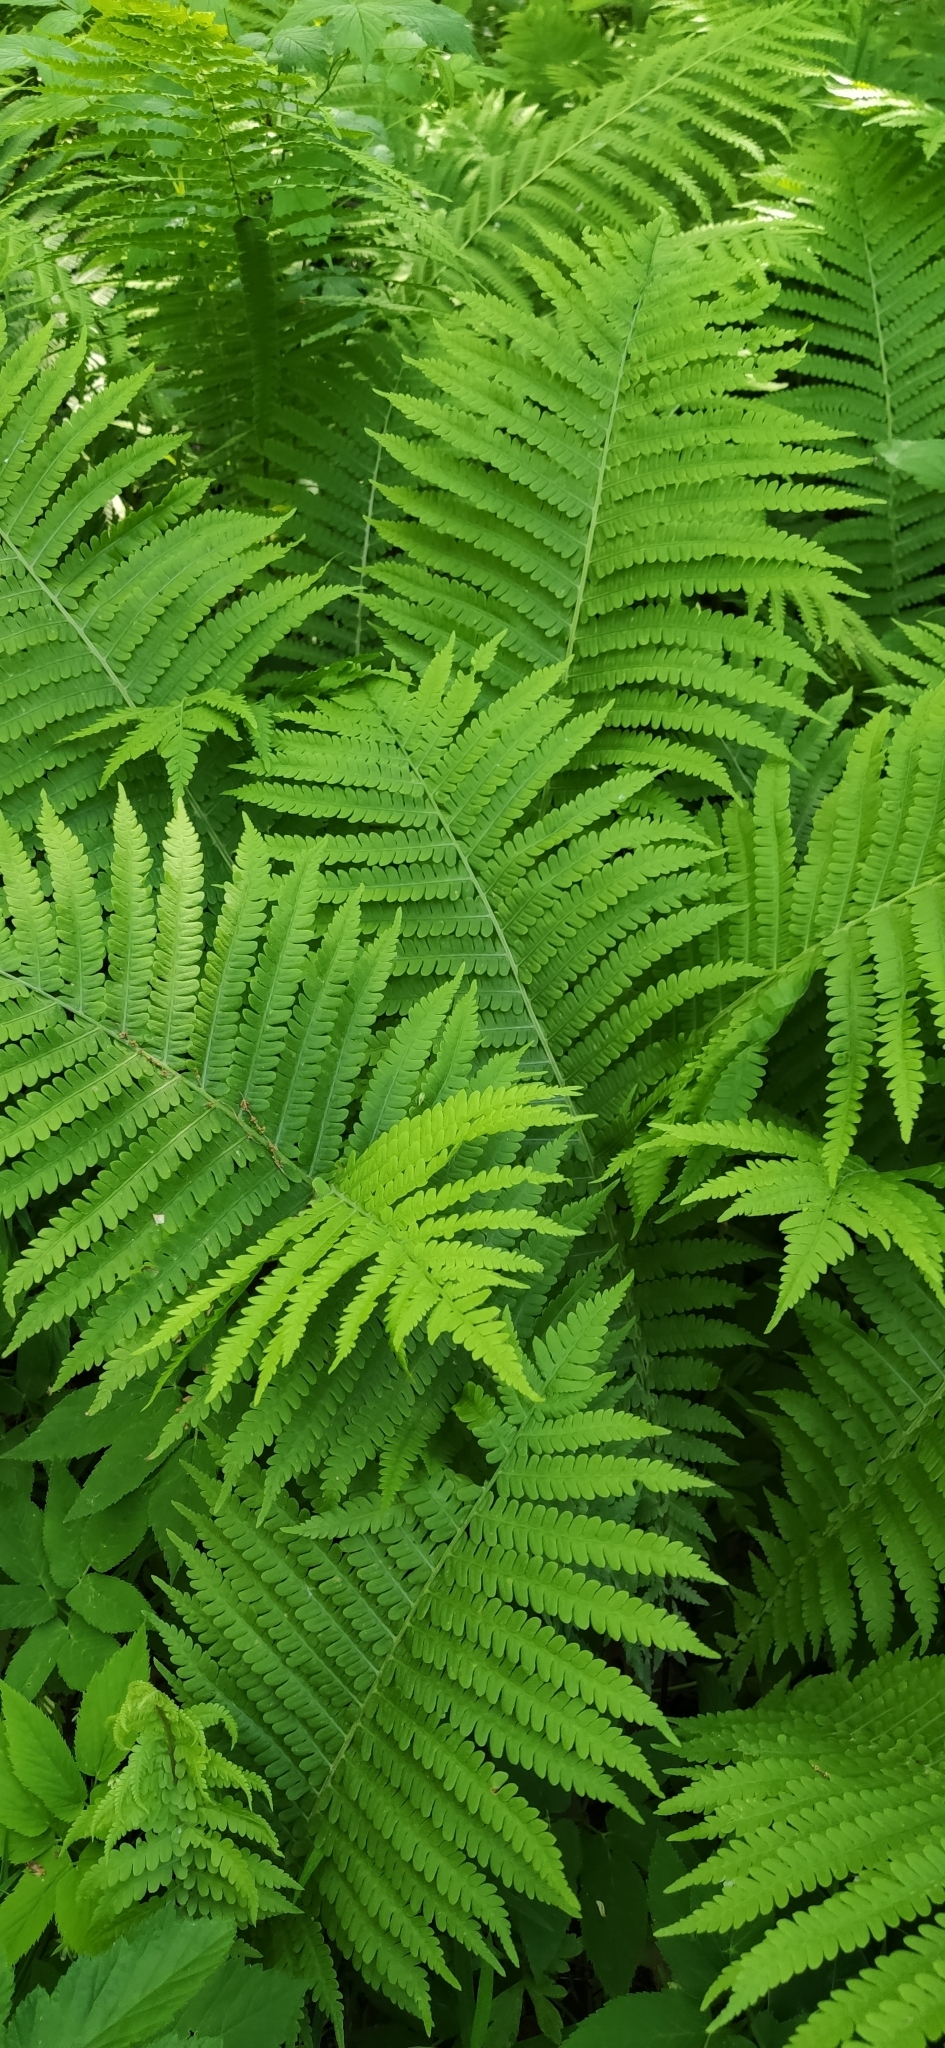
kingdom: Plantae
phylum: Tracheophyta
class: Polypodiopsida
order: Polypodiales
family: Onocleaceae
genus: Matteuccia
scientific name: Matteuccia struthiopteris
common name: Ostrich fern
